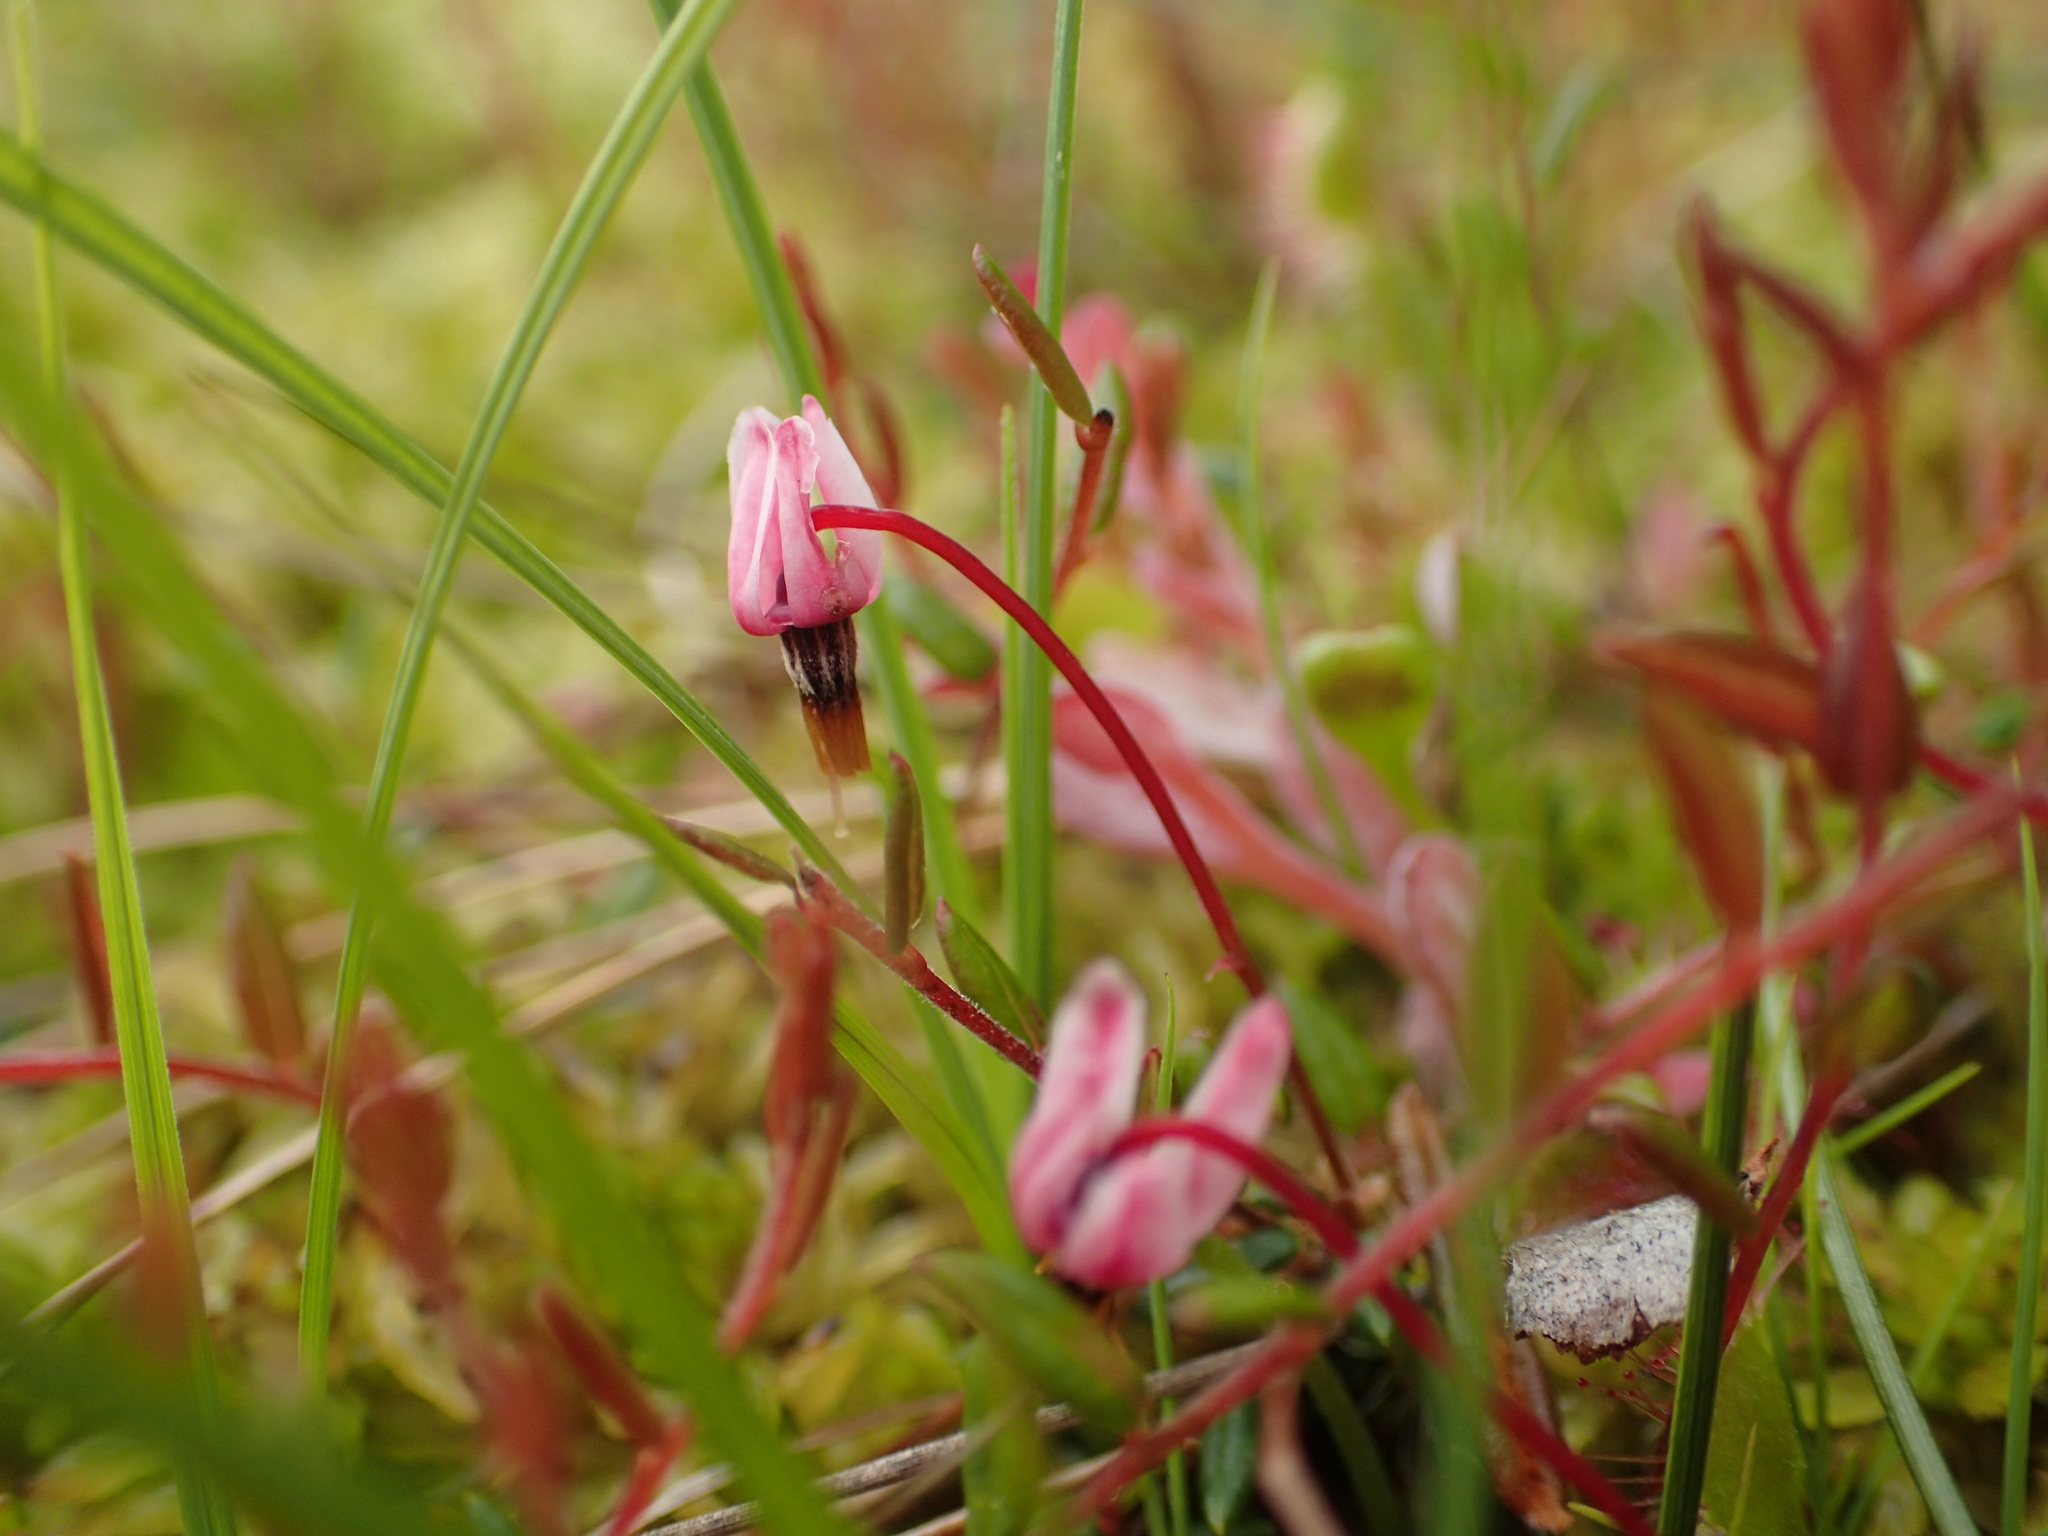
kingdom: Plantae
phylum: Tracheophyta
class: Magnoliopsida
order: Ericales
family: Ericaceae
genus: Vaccinium
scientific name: Vaccinium oxycoccos
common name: Cranberry
